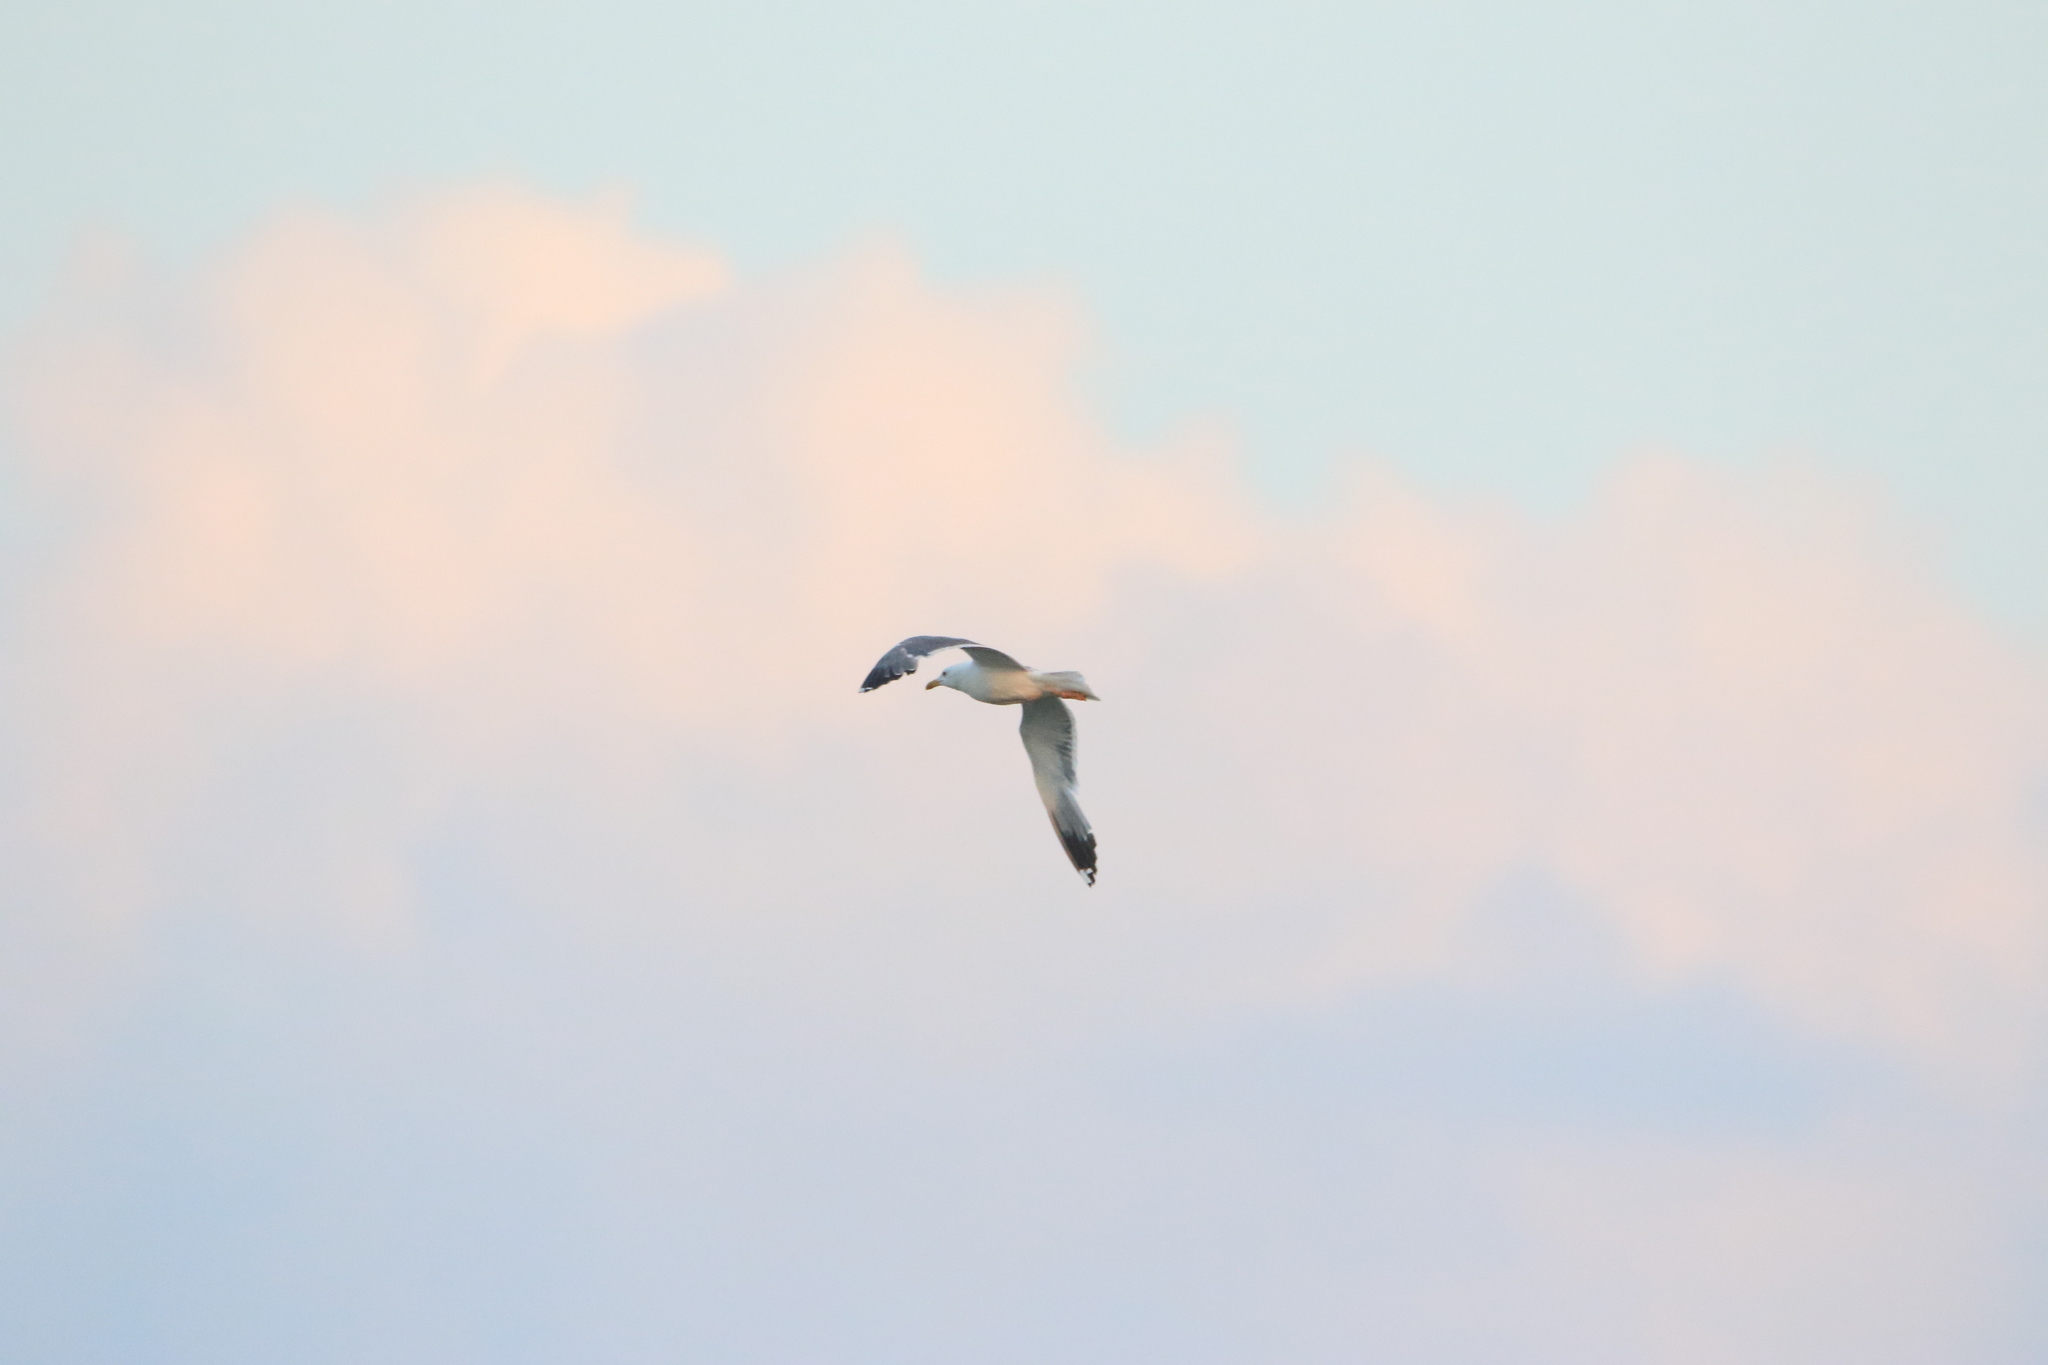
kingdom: Animalia
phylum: Chordata
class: Aves
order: Charadriiformes
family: Laridae
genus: Larus
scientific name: Larus fuscus
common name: Lesser black-backed gull
